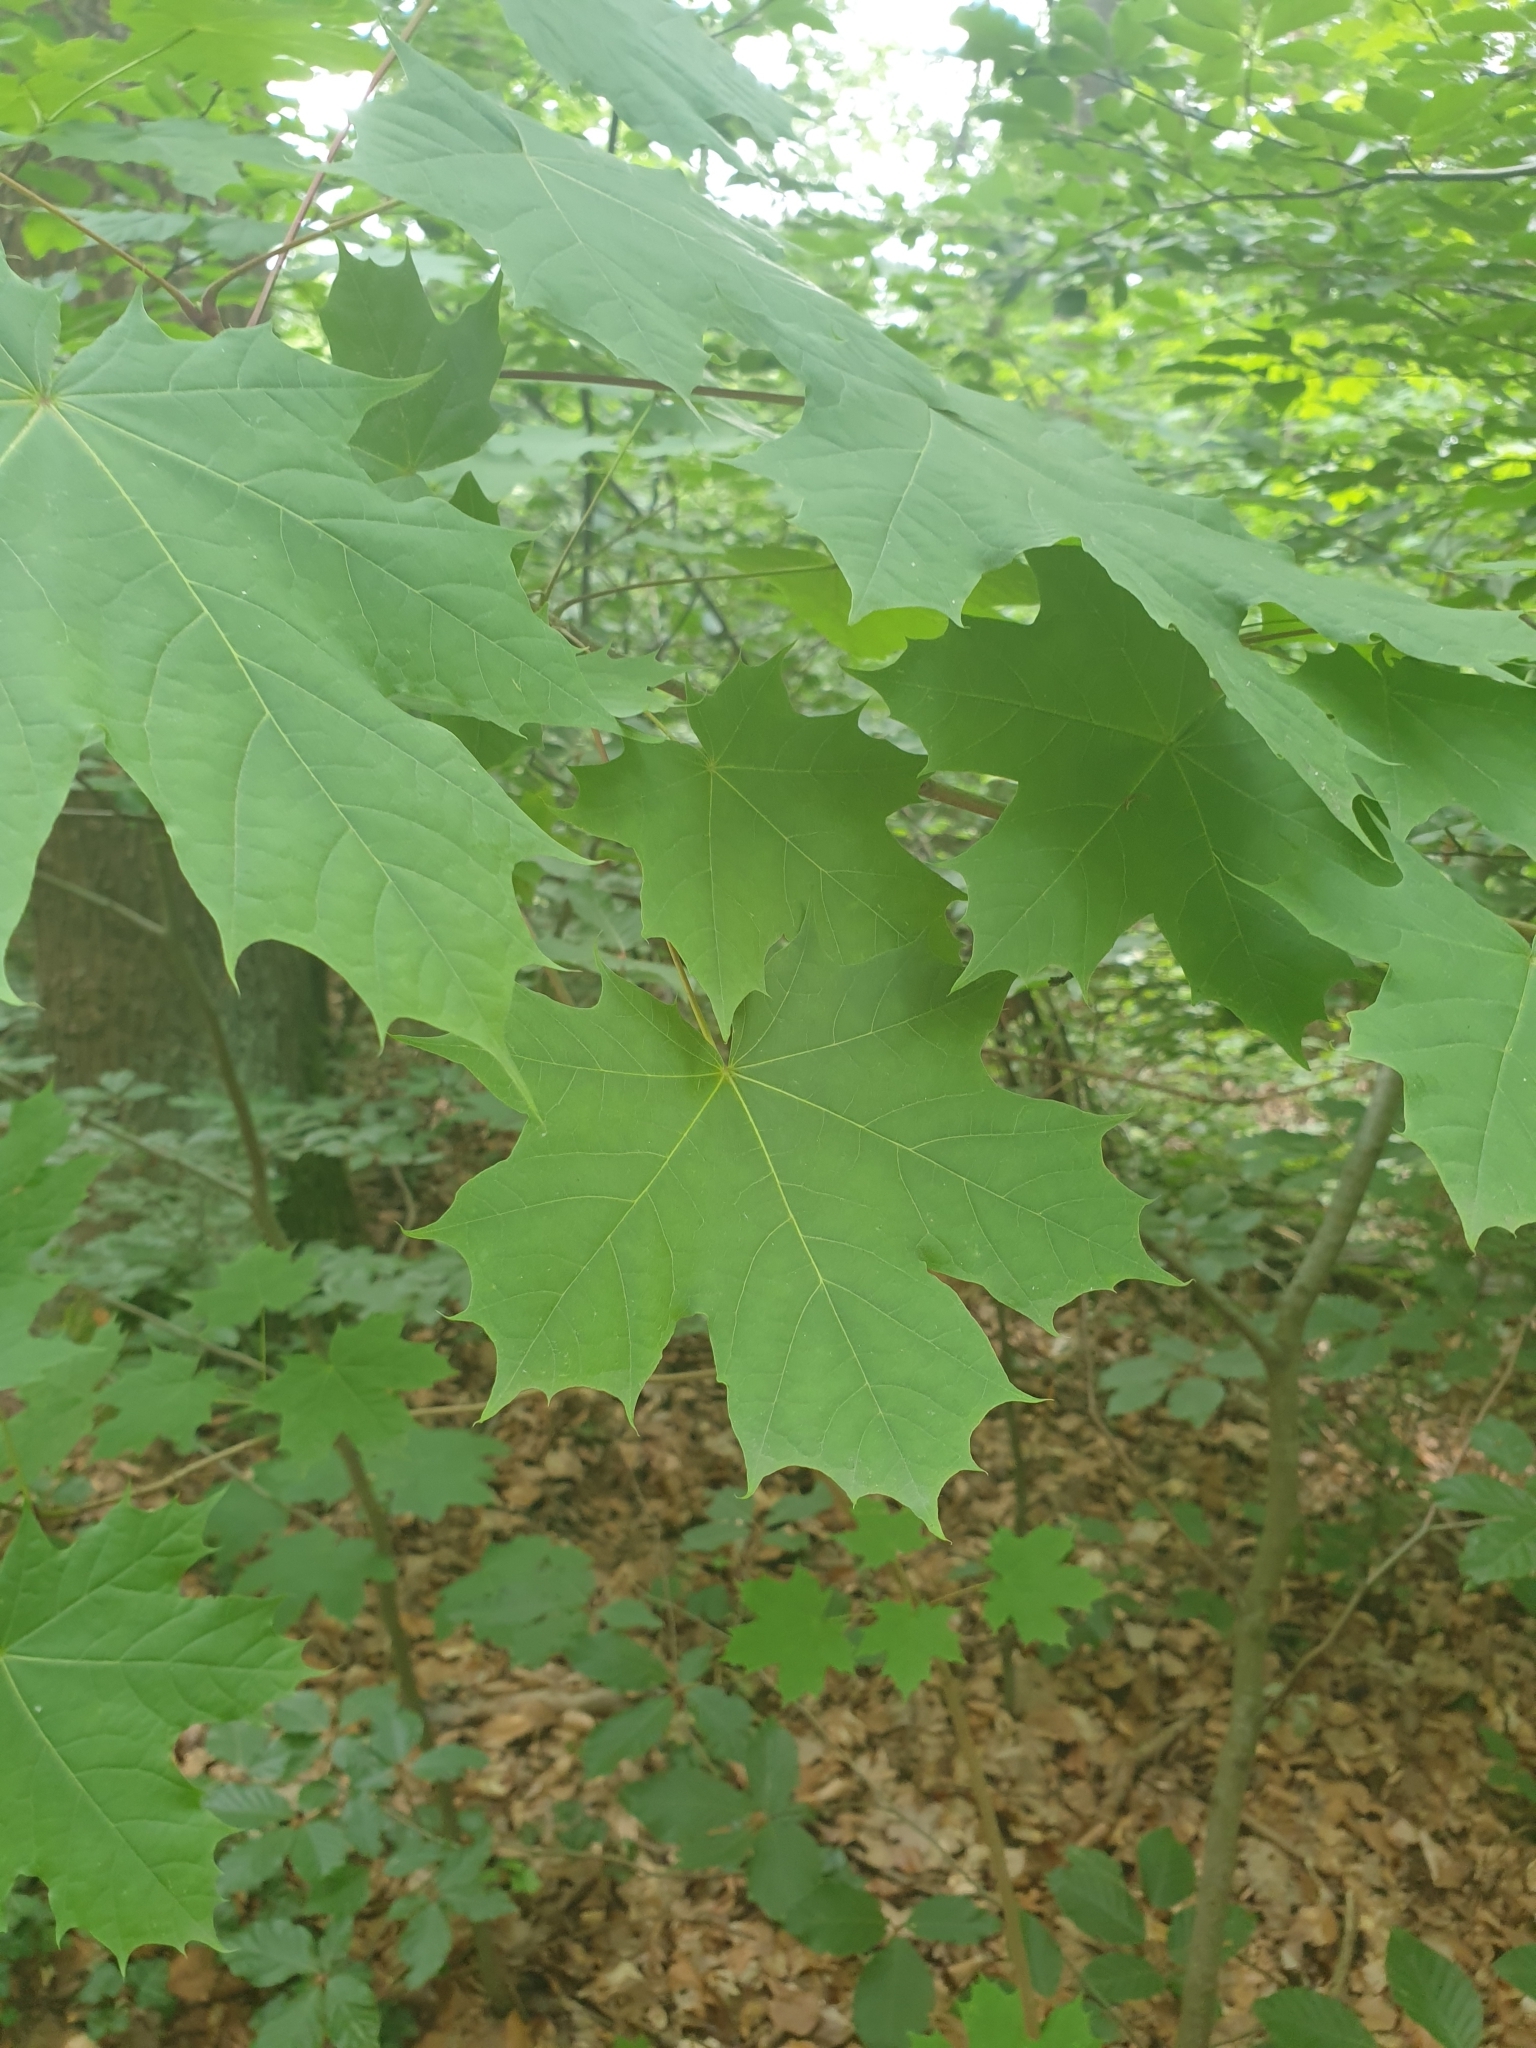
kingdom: Plantae
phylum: Tracheophyta
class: Magnoliopsida
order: Sapindales
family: Sapindaceae
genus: Acer
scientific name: Acer platanoides
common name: Norway maple
